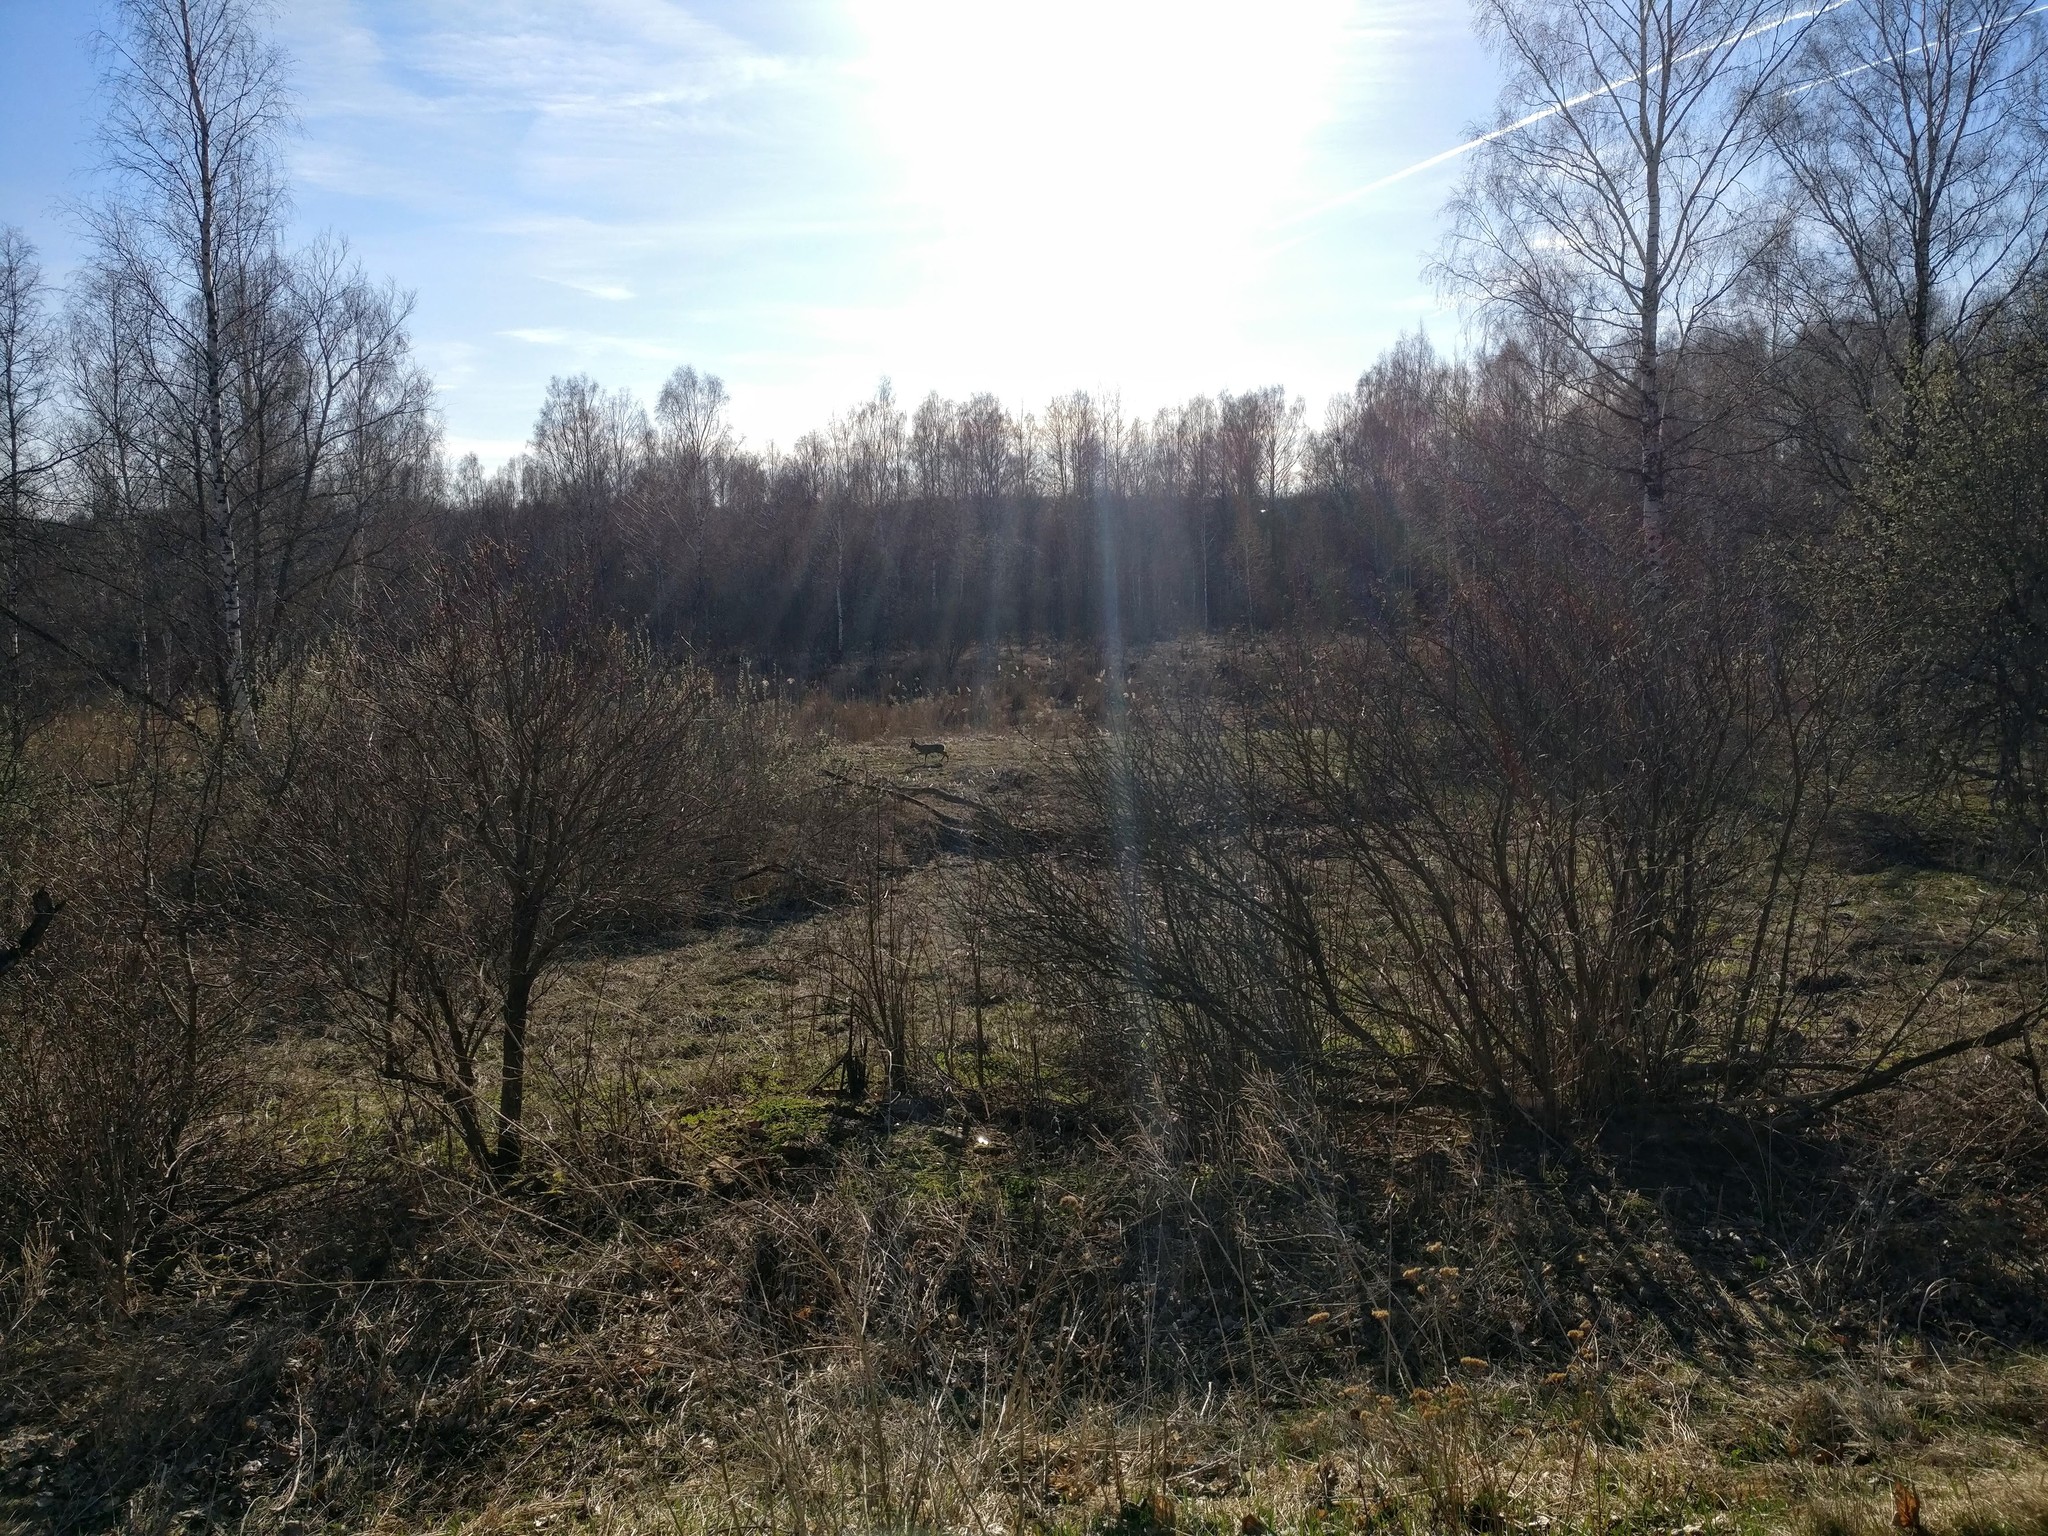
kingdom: Animalia
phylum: Chordata
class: Mammalia
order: Artiodactyla
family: Cervidae
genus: Capreolus
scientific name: Capreolus capreolus
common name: Western roe deer
